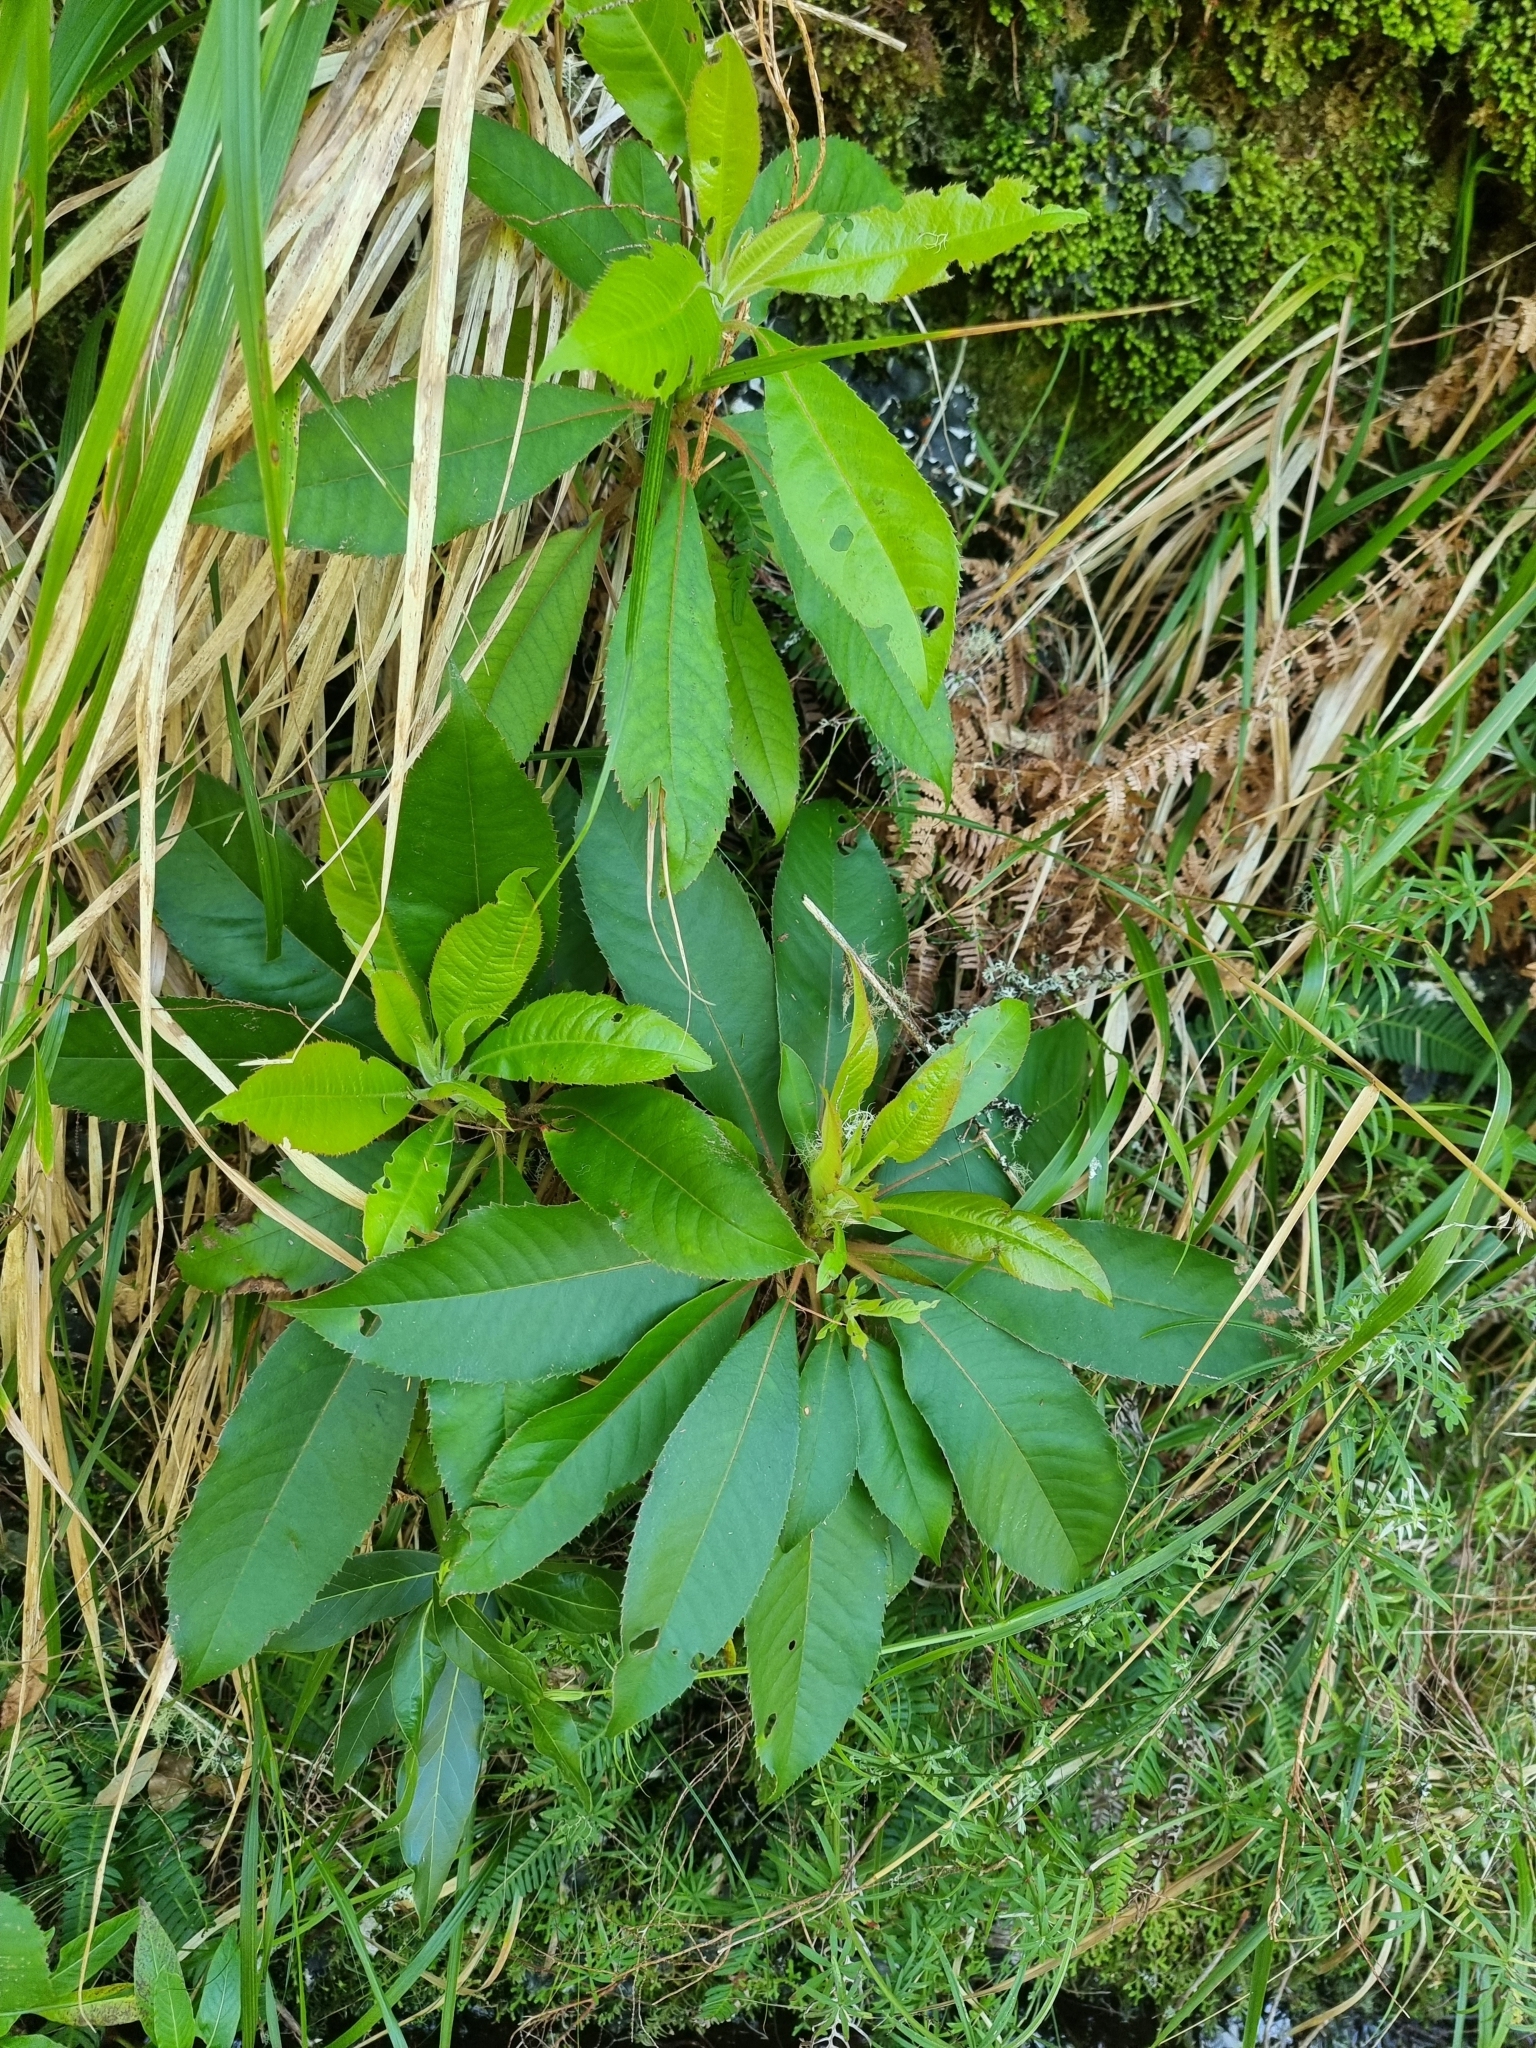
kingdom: Plantae
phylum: Tracheophyta
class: Magnoliopsida
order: Ericales
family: Clethraceae
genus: Clethra
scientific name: Clethra arborea
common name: Lily-of-the-valley-tree
